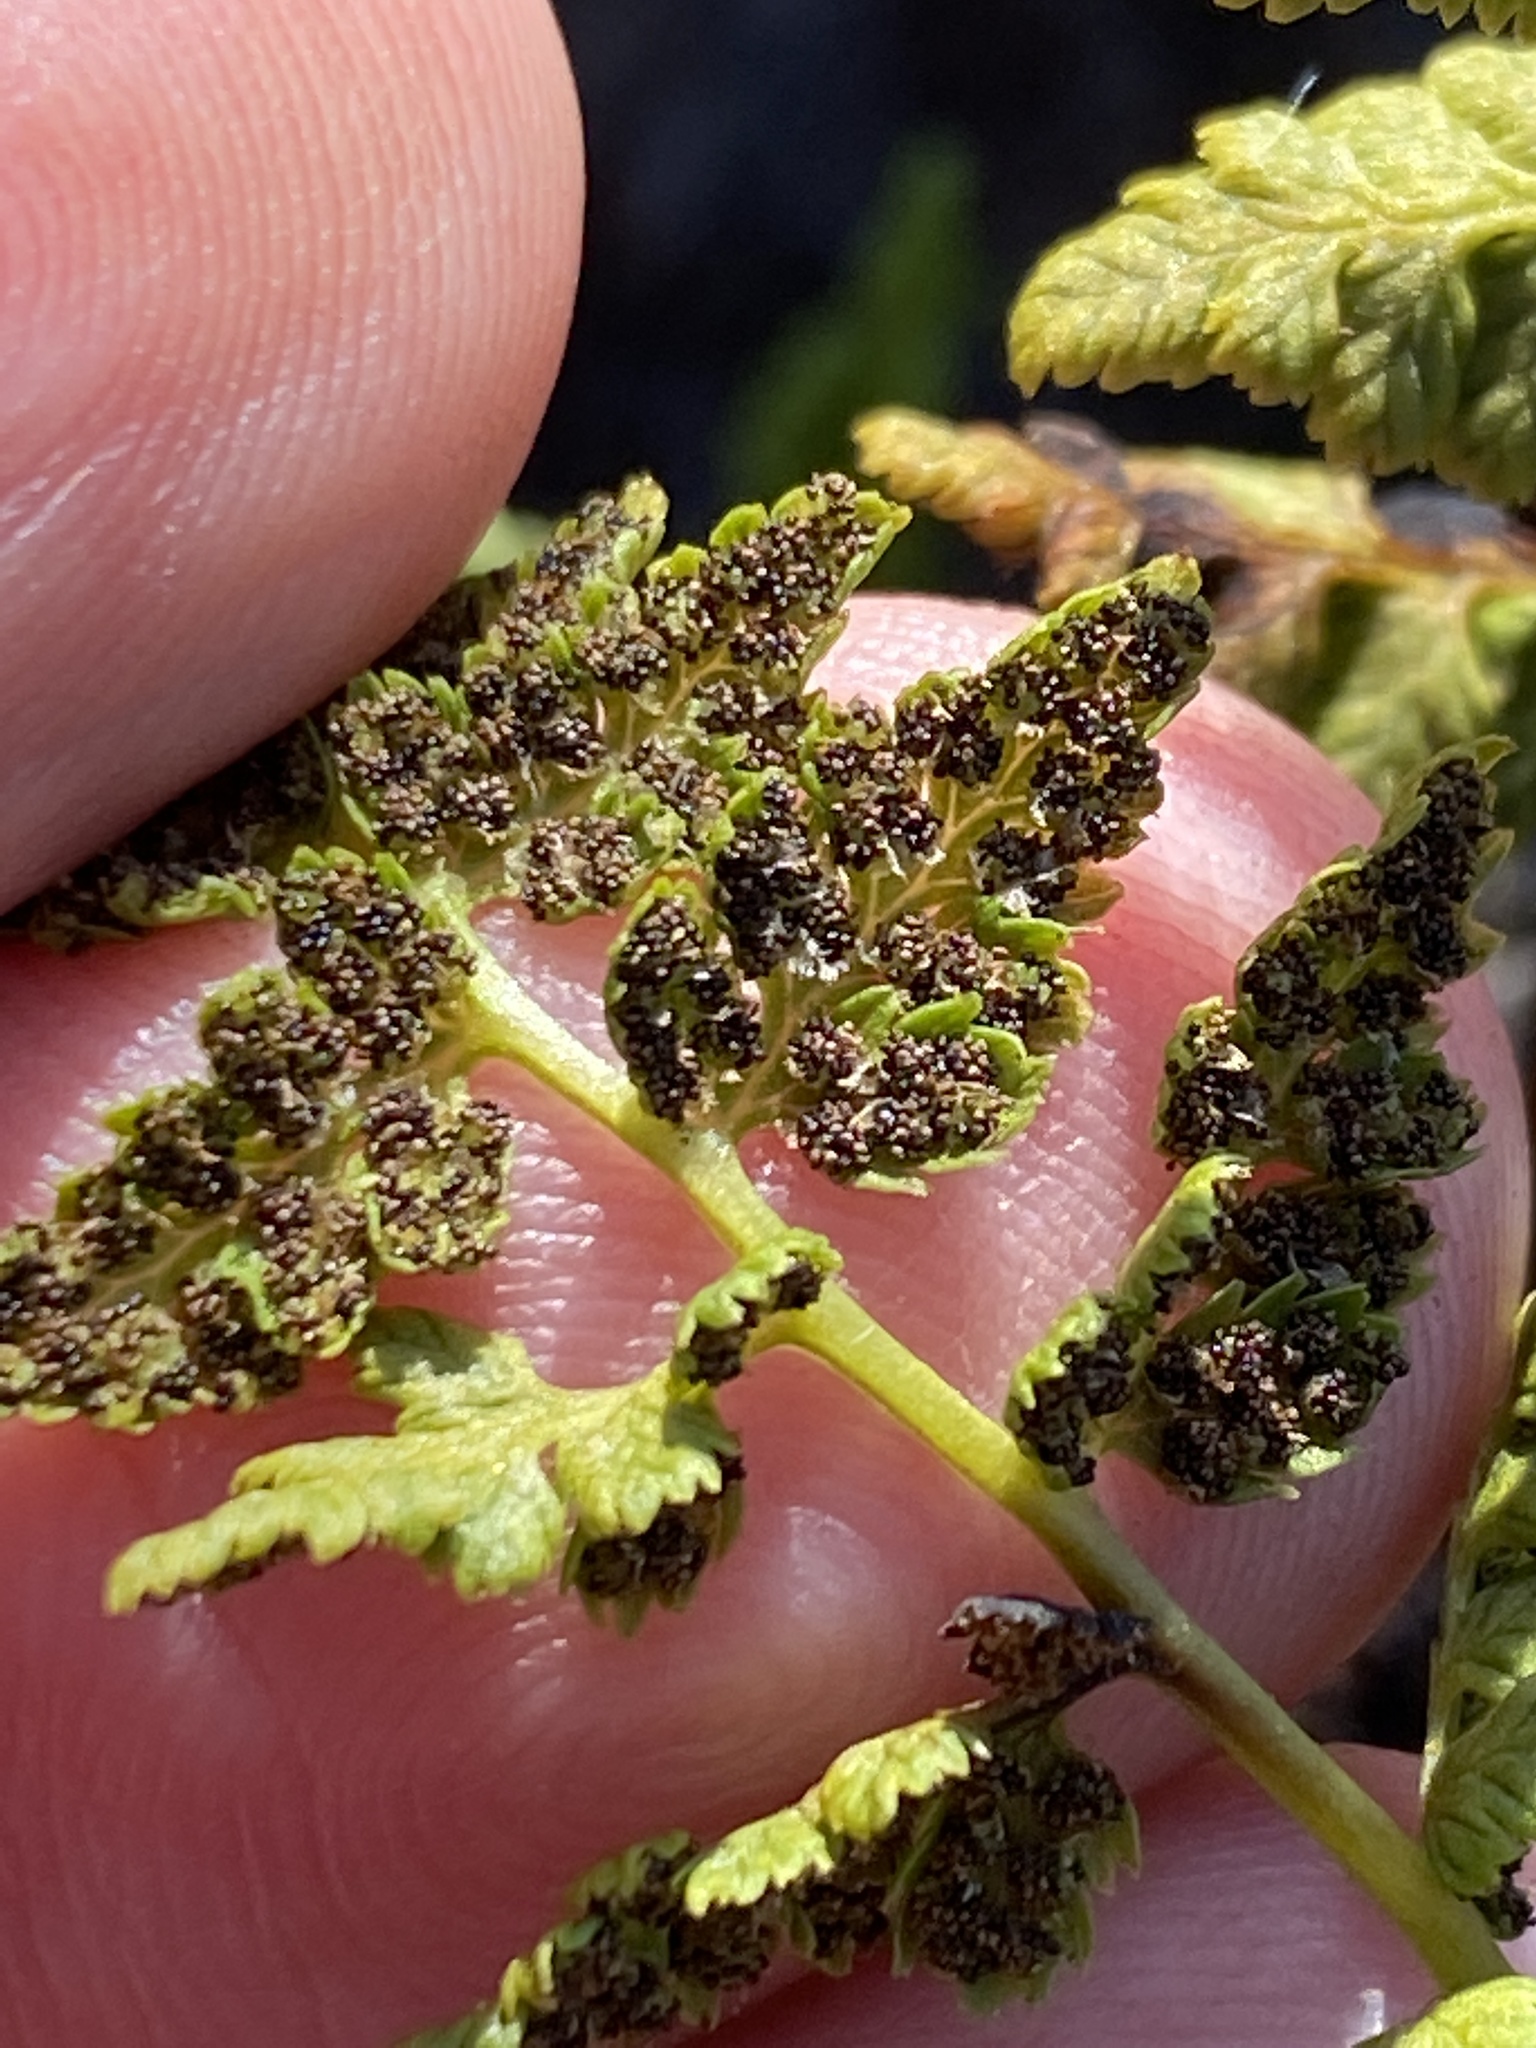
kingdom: Plantae
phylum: Tracheophyta
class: Polypodiopsida
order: Polypodiales
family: Cystopteridaceae
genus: Cystopteris
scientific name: Cystopteris fragilis
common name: Brittle bladder fern
